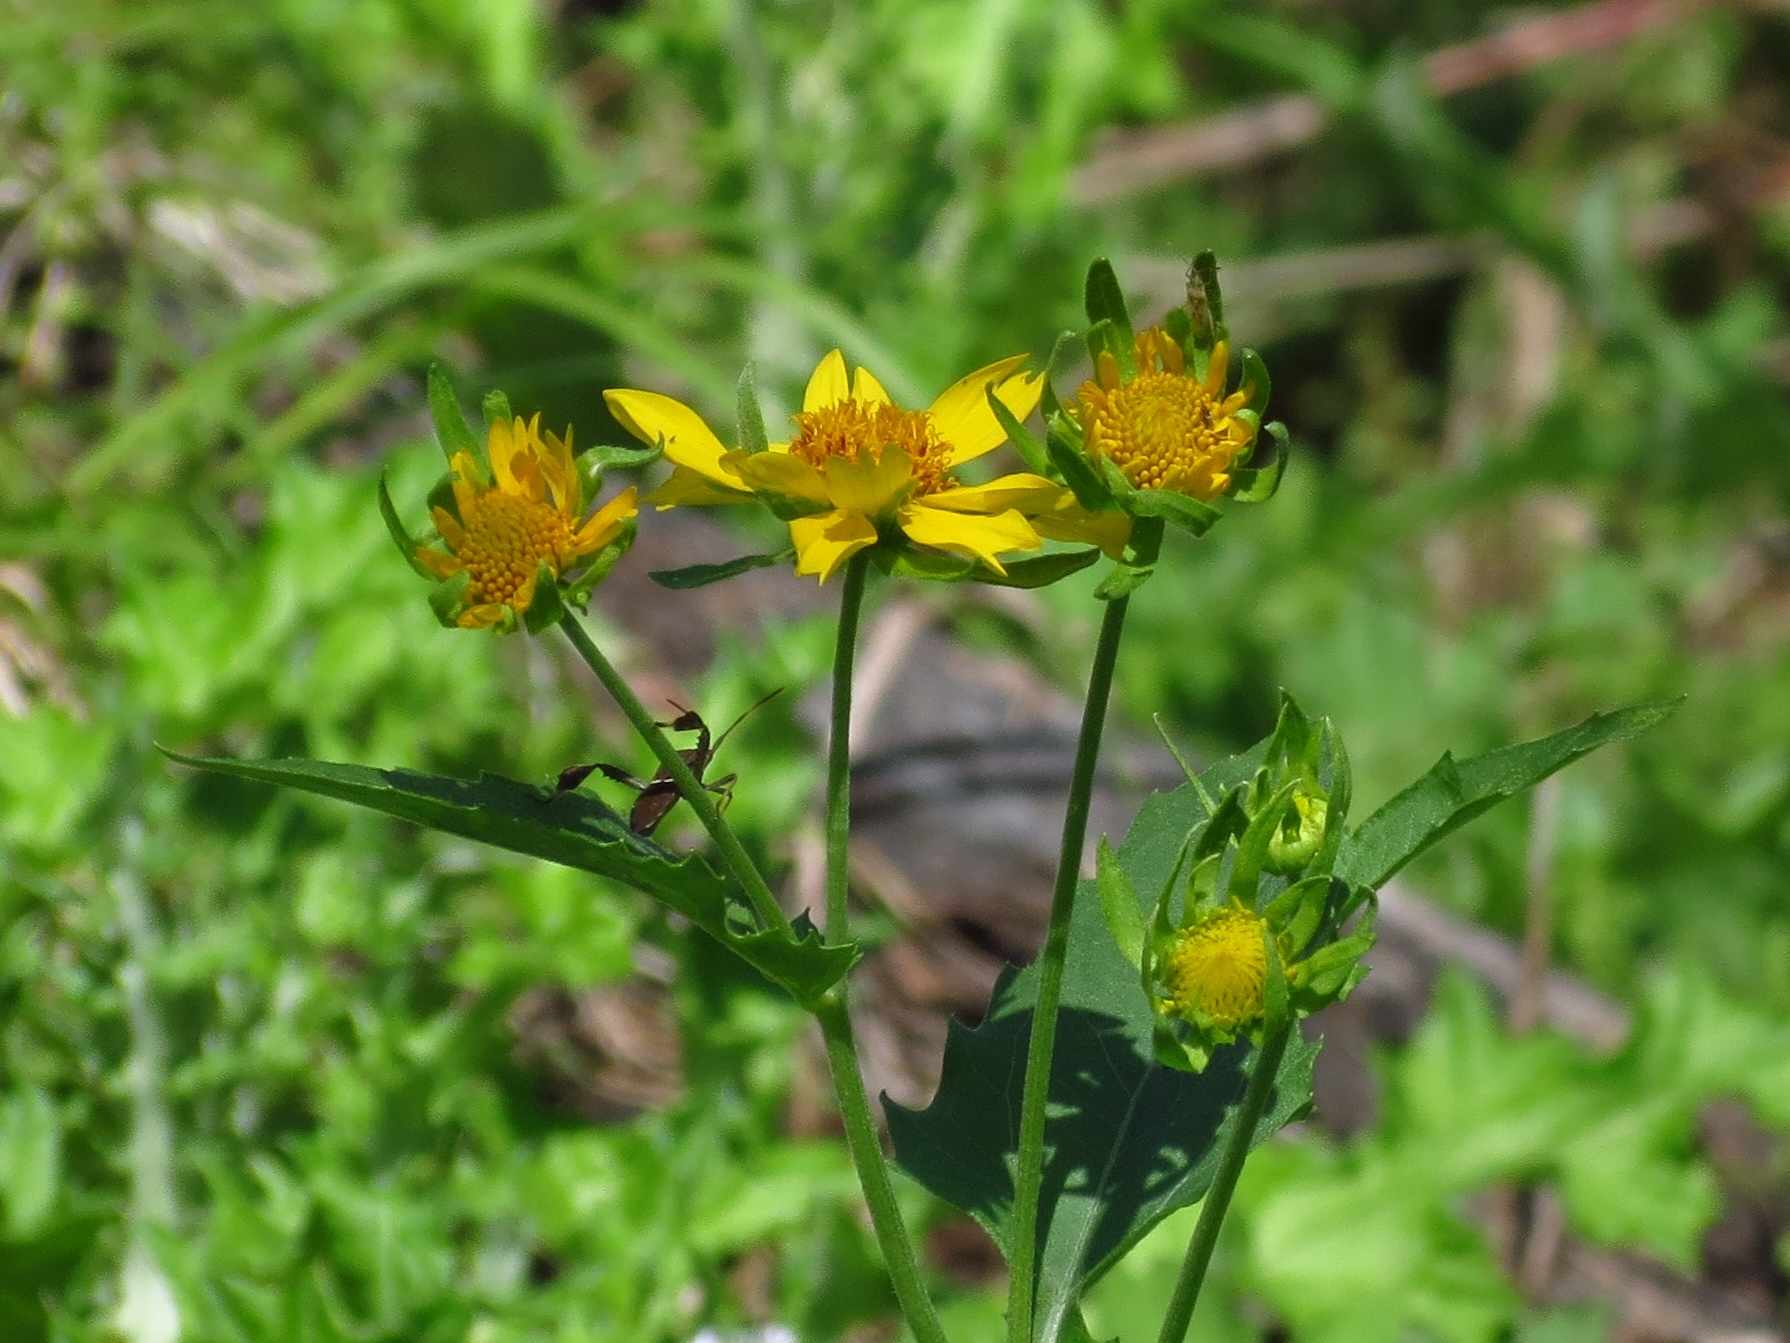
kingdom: Plantae
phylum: Tracheophyta
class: Magnoliopsida
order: Asterales
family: Asteraceae
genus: Verbesina
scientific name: Verbesina encelioides
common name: Golden crownbeard
